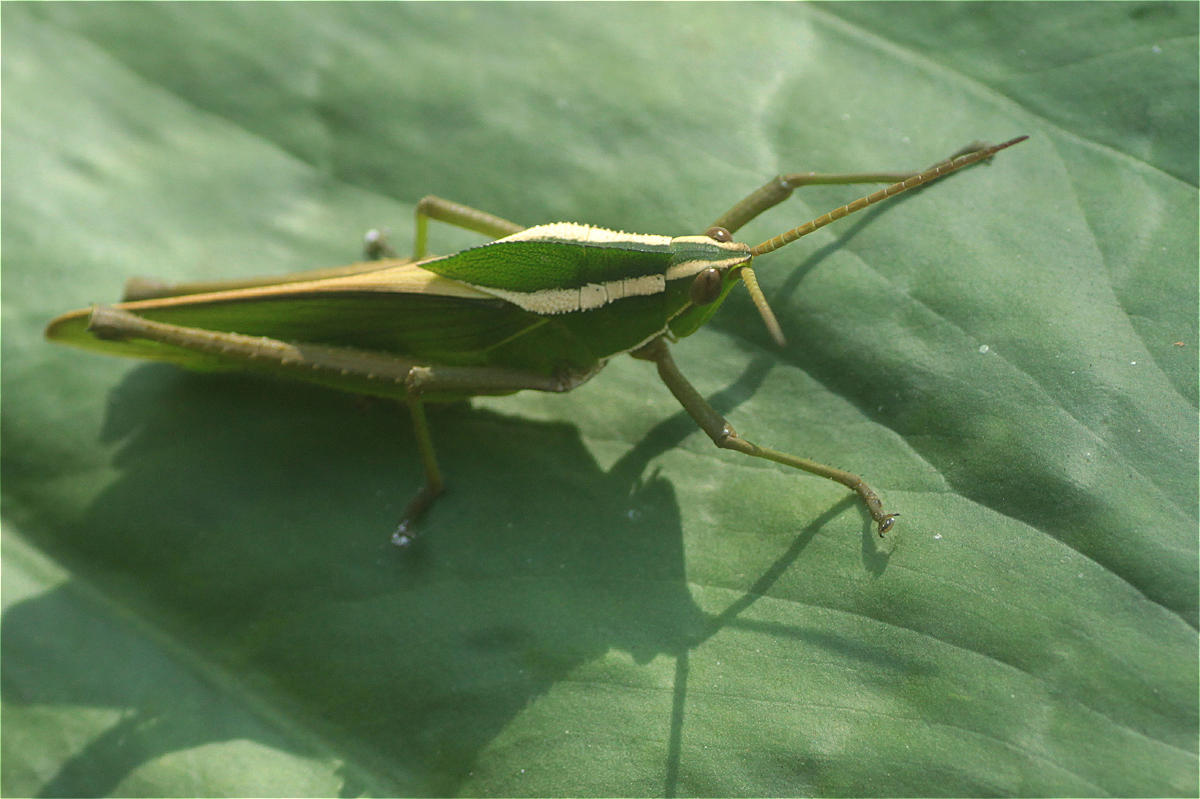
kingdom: Animalia
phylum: Arthropoda
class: Insecta
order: Orthoptera
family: Romaleidae
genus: Prionolopha
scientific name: Prionolopha serrata
